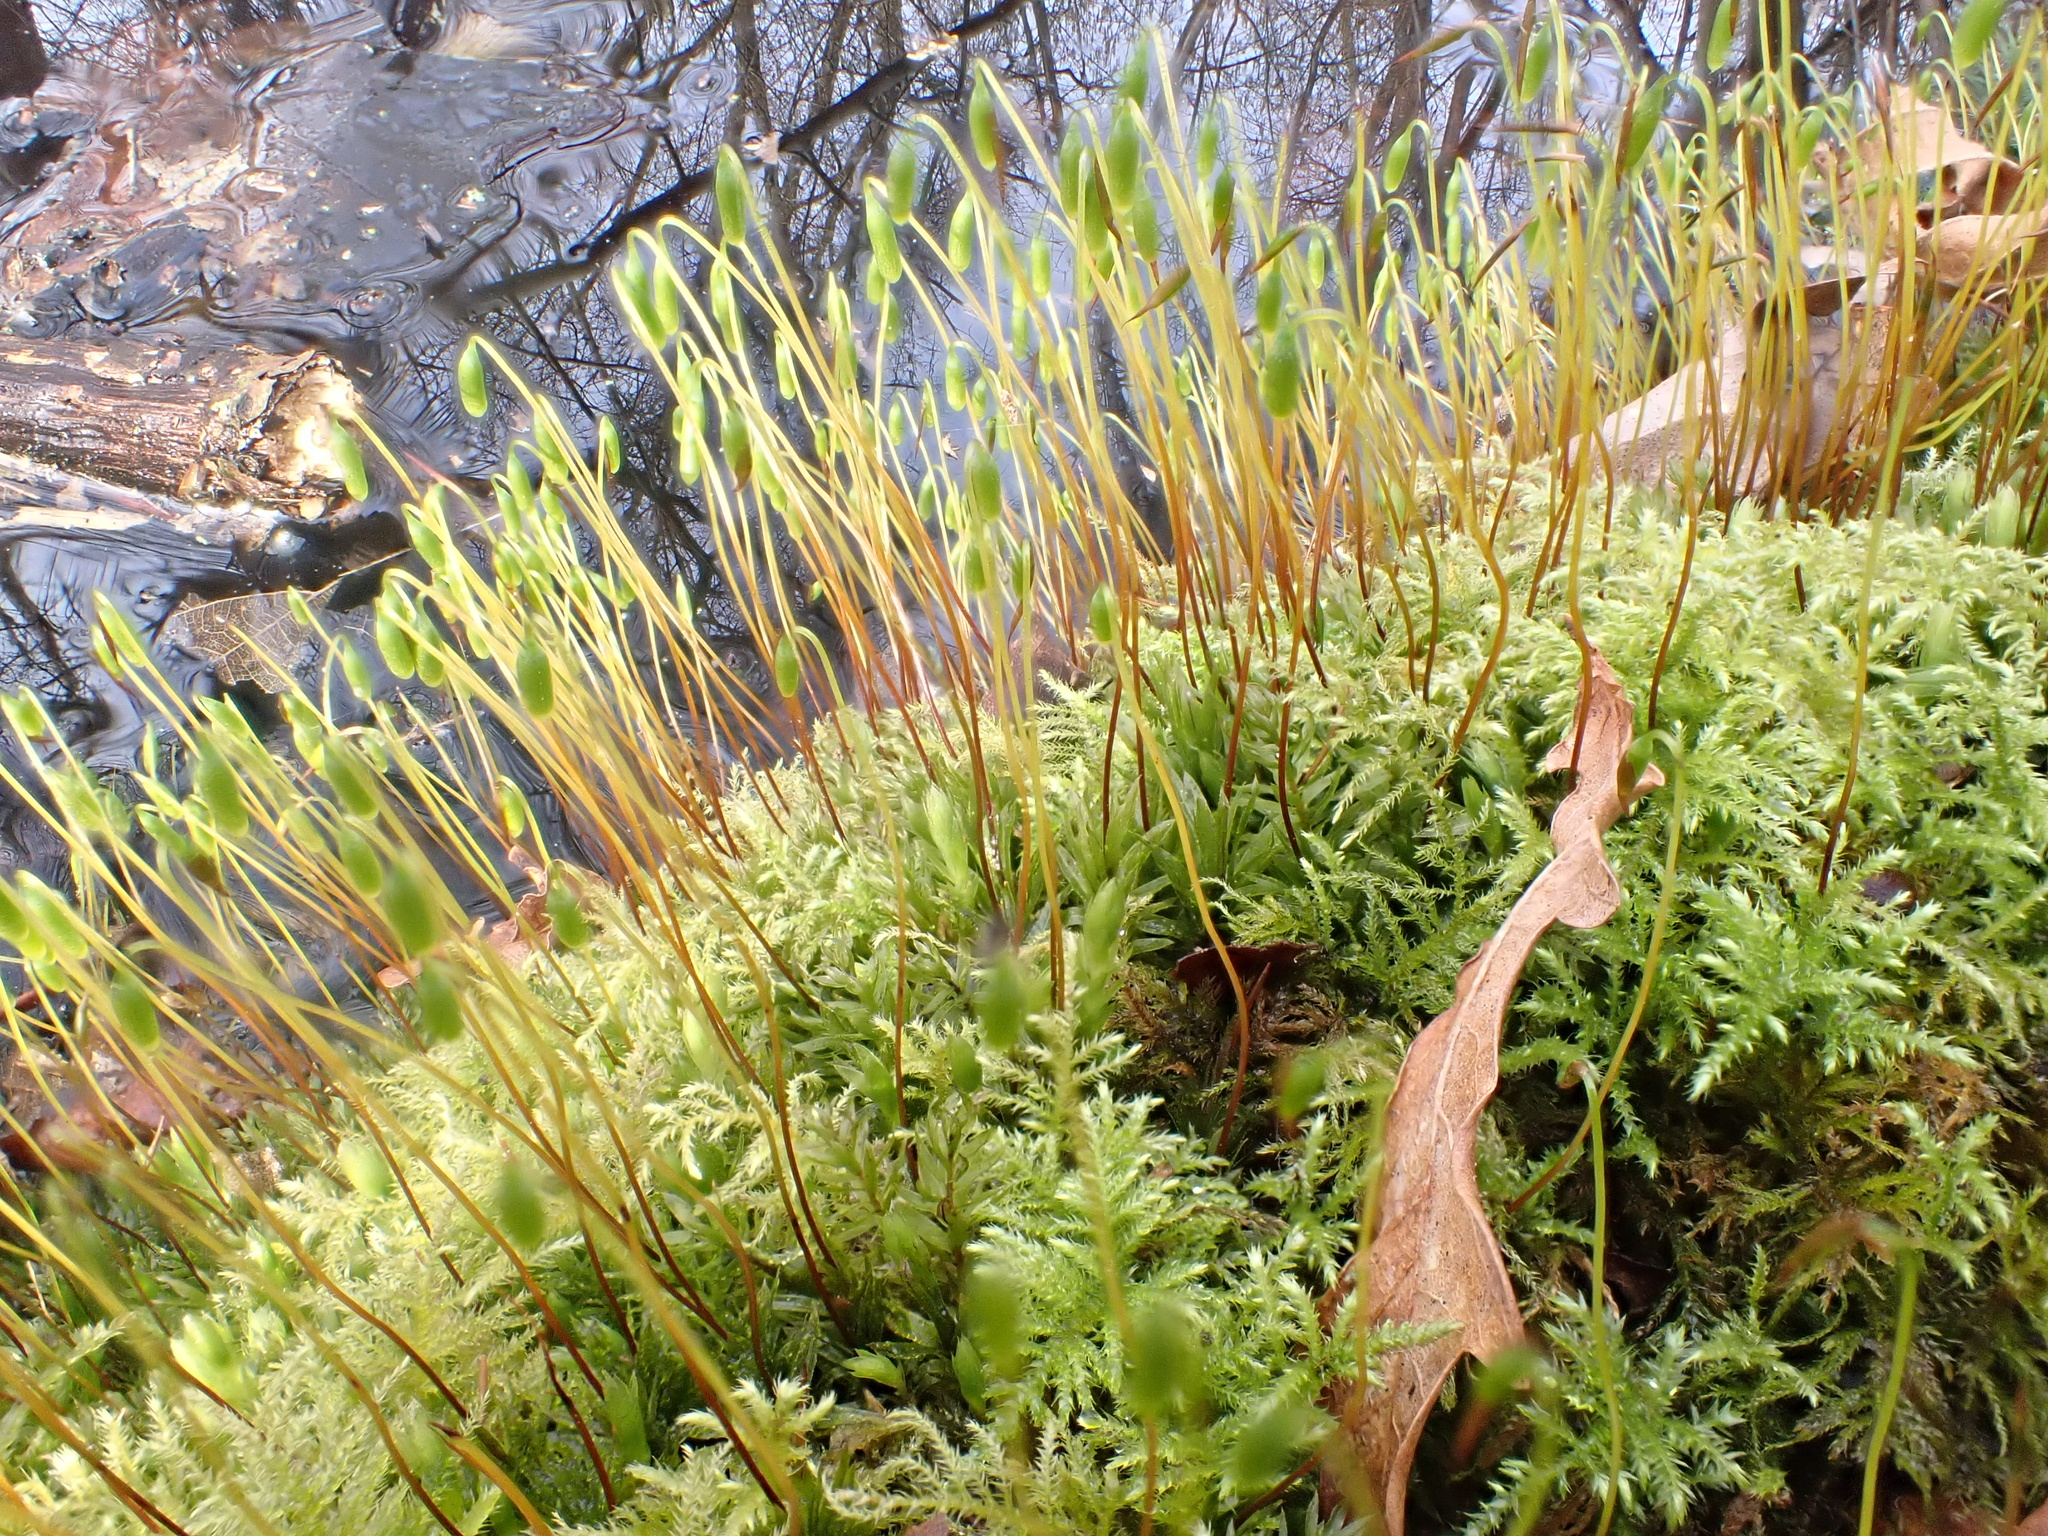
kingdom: Plantae
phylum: Bryophyta
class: Bryopsida
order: Bryales
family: Mniaceae
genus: Mnium
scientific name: Mnium hornum
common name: Swan's-neck leafy moss
